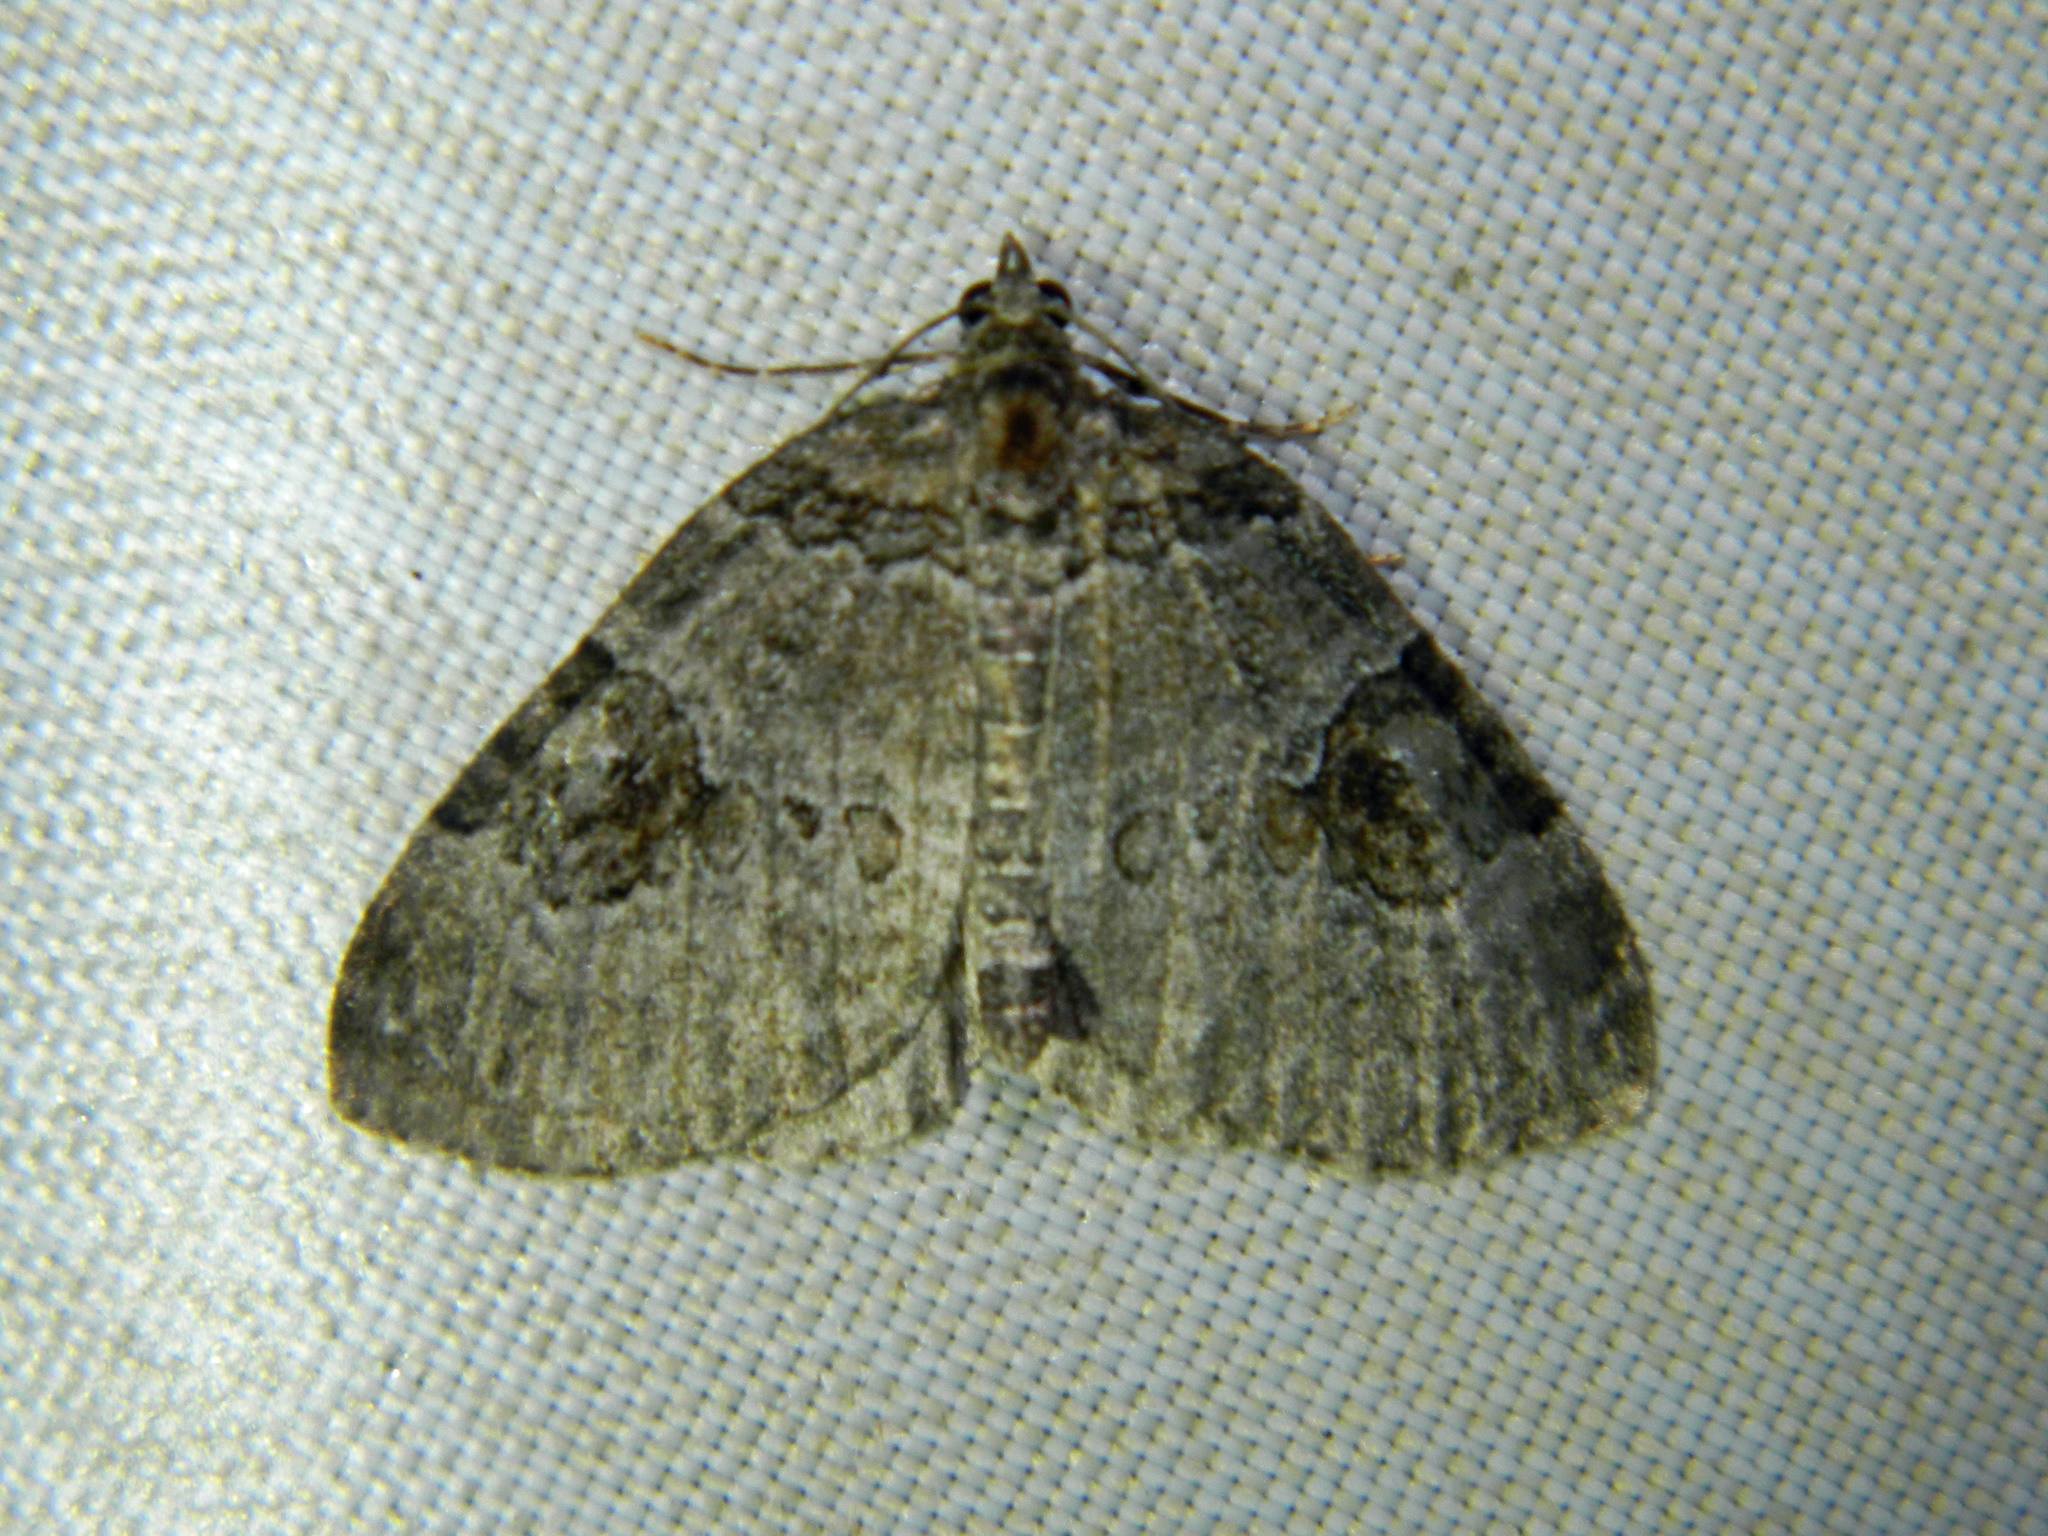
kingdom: Animalia
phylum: Arthropoda
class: Insecta
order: Lepidoptera
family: Geometridae
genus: Plemyria
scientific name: Plemyria georgii
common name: George's carpet moth
